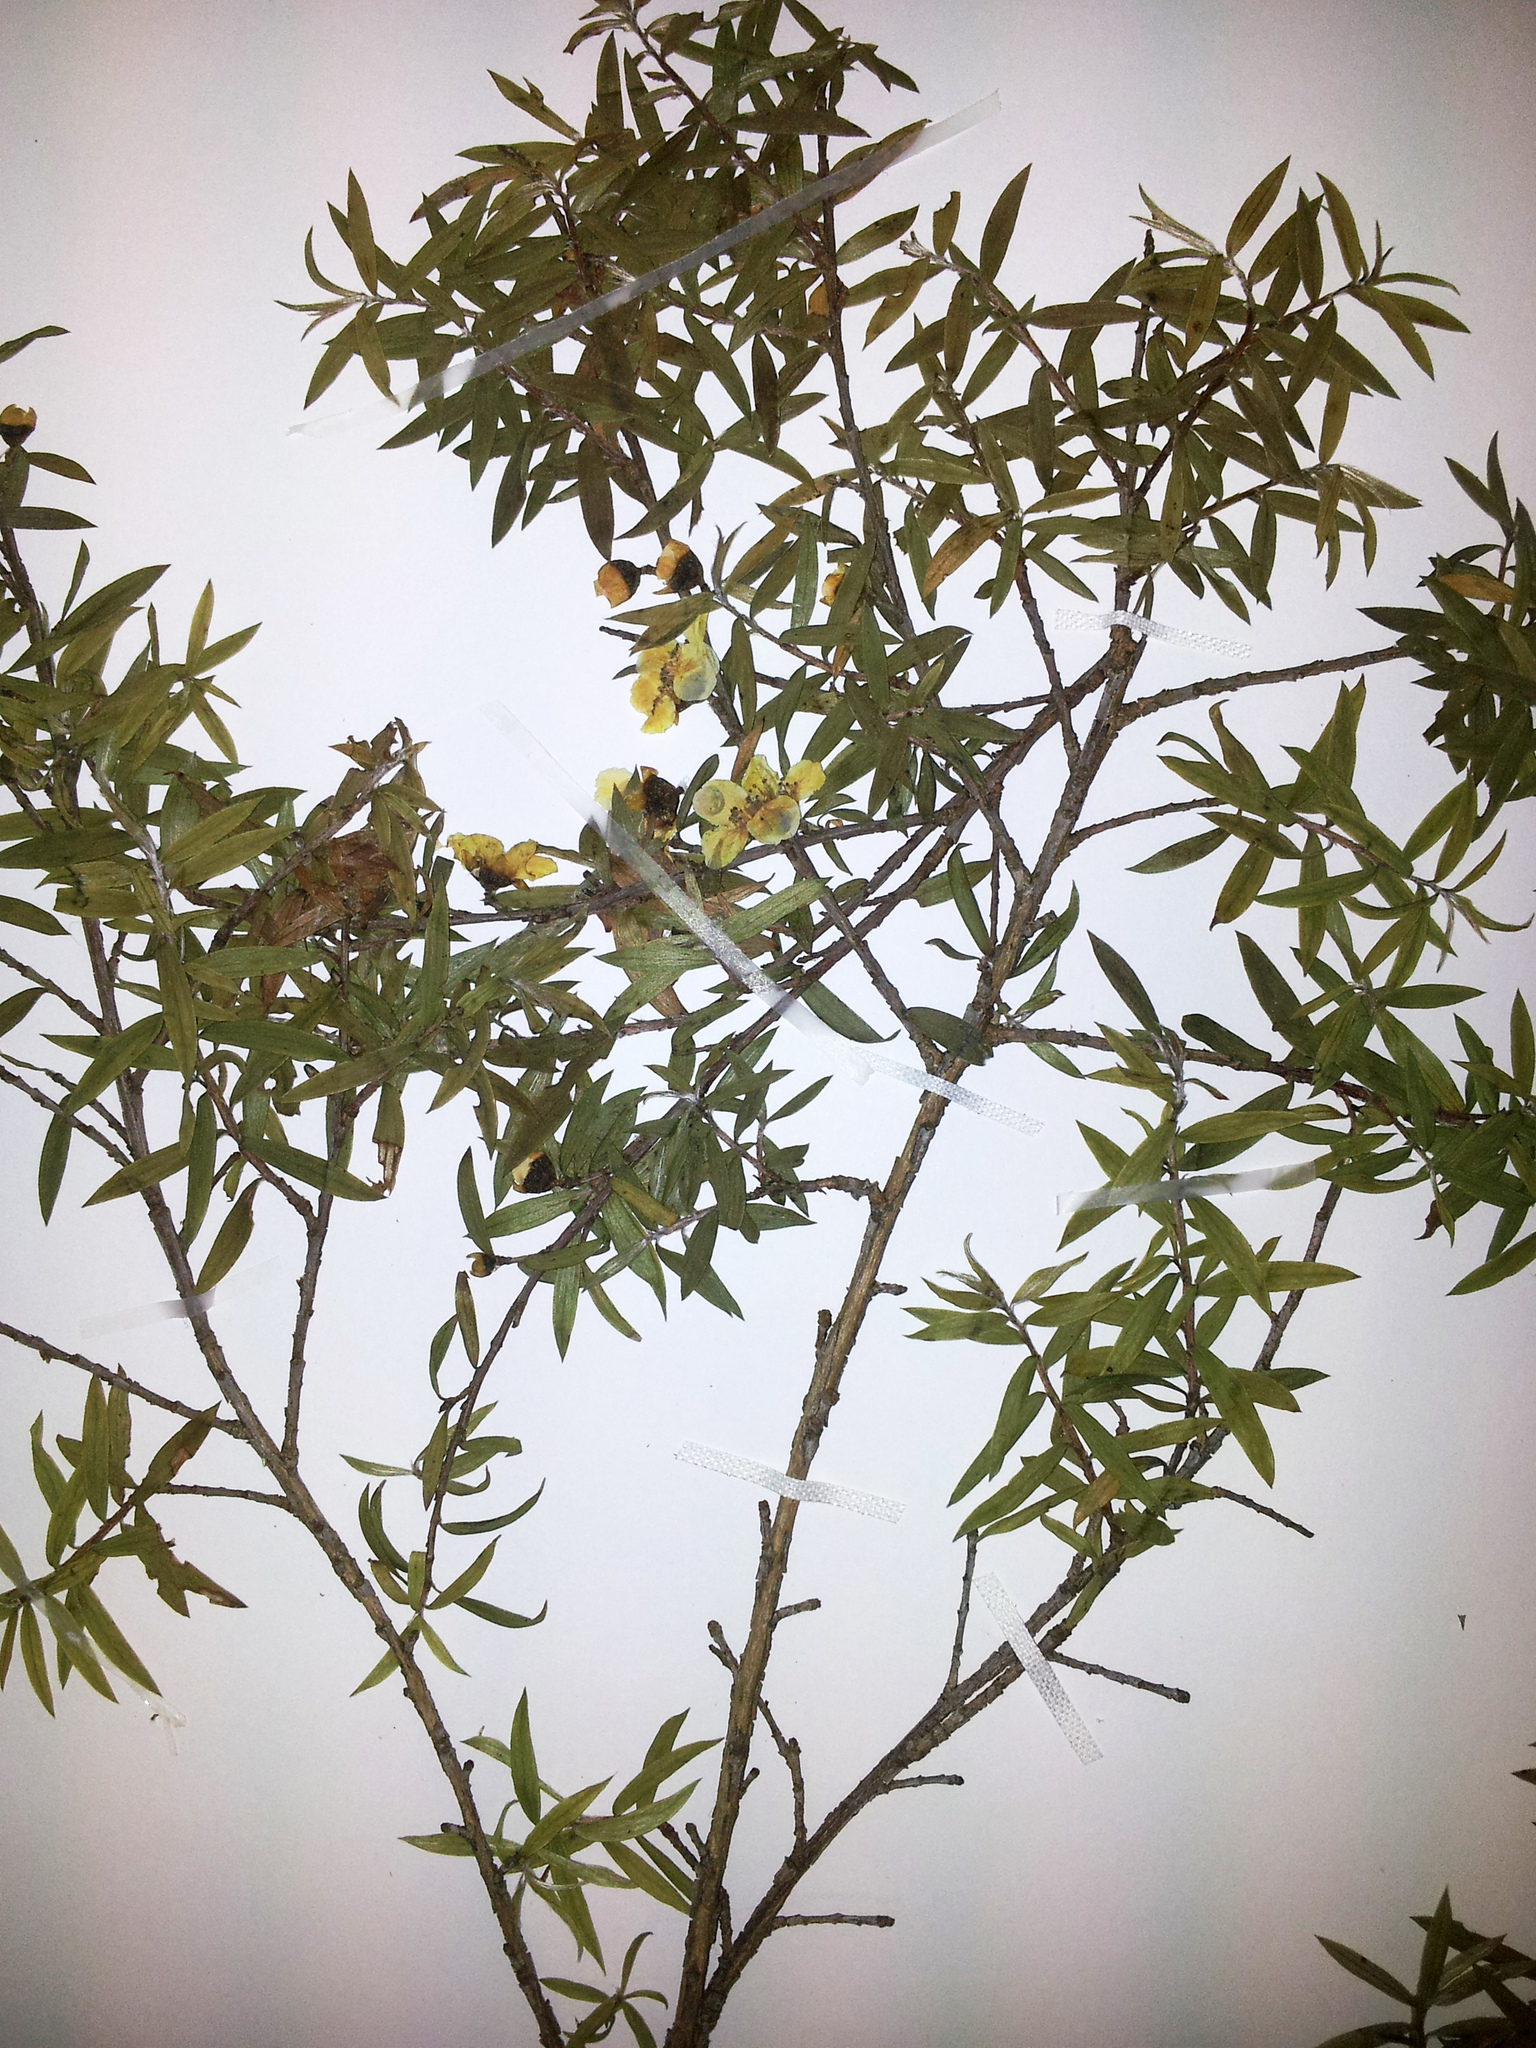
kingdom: Plantae
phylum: Tracheophyta
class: Magnoliopsida
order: Myrtales
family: Myrtaceae
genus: Leptospermum
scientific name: Leptospermum scoparium
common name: Broom tea-tree
